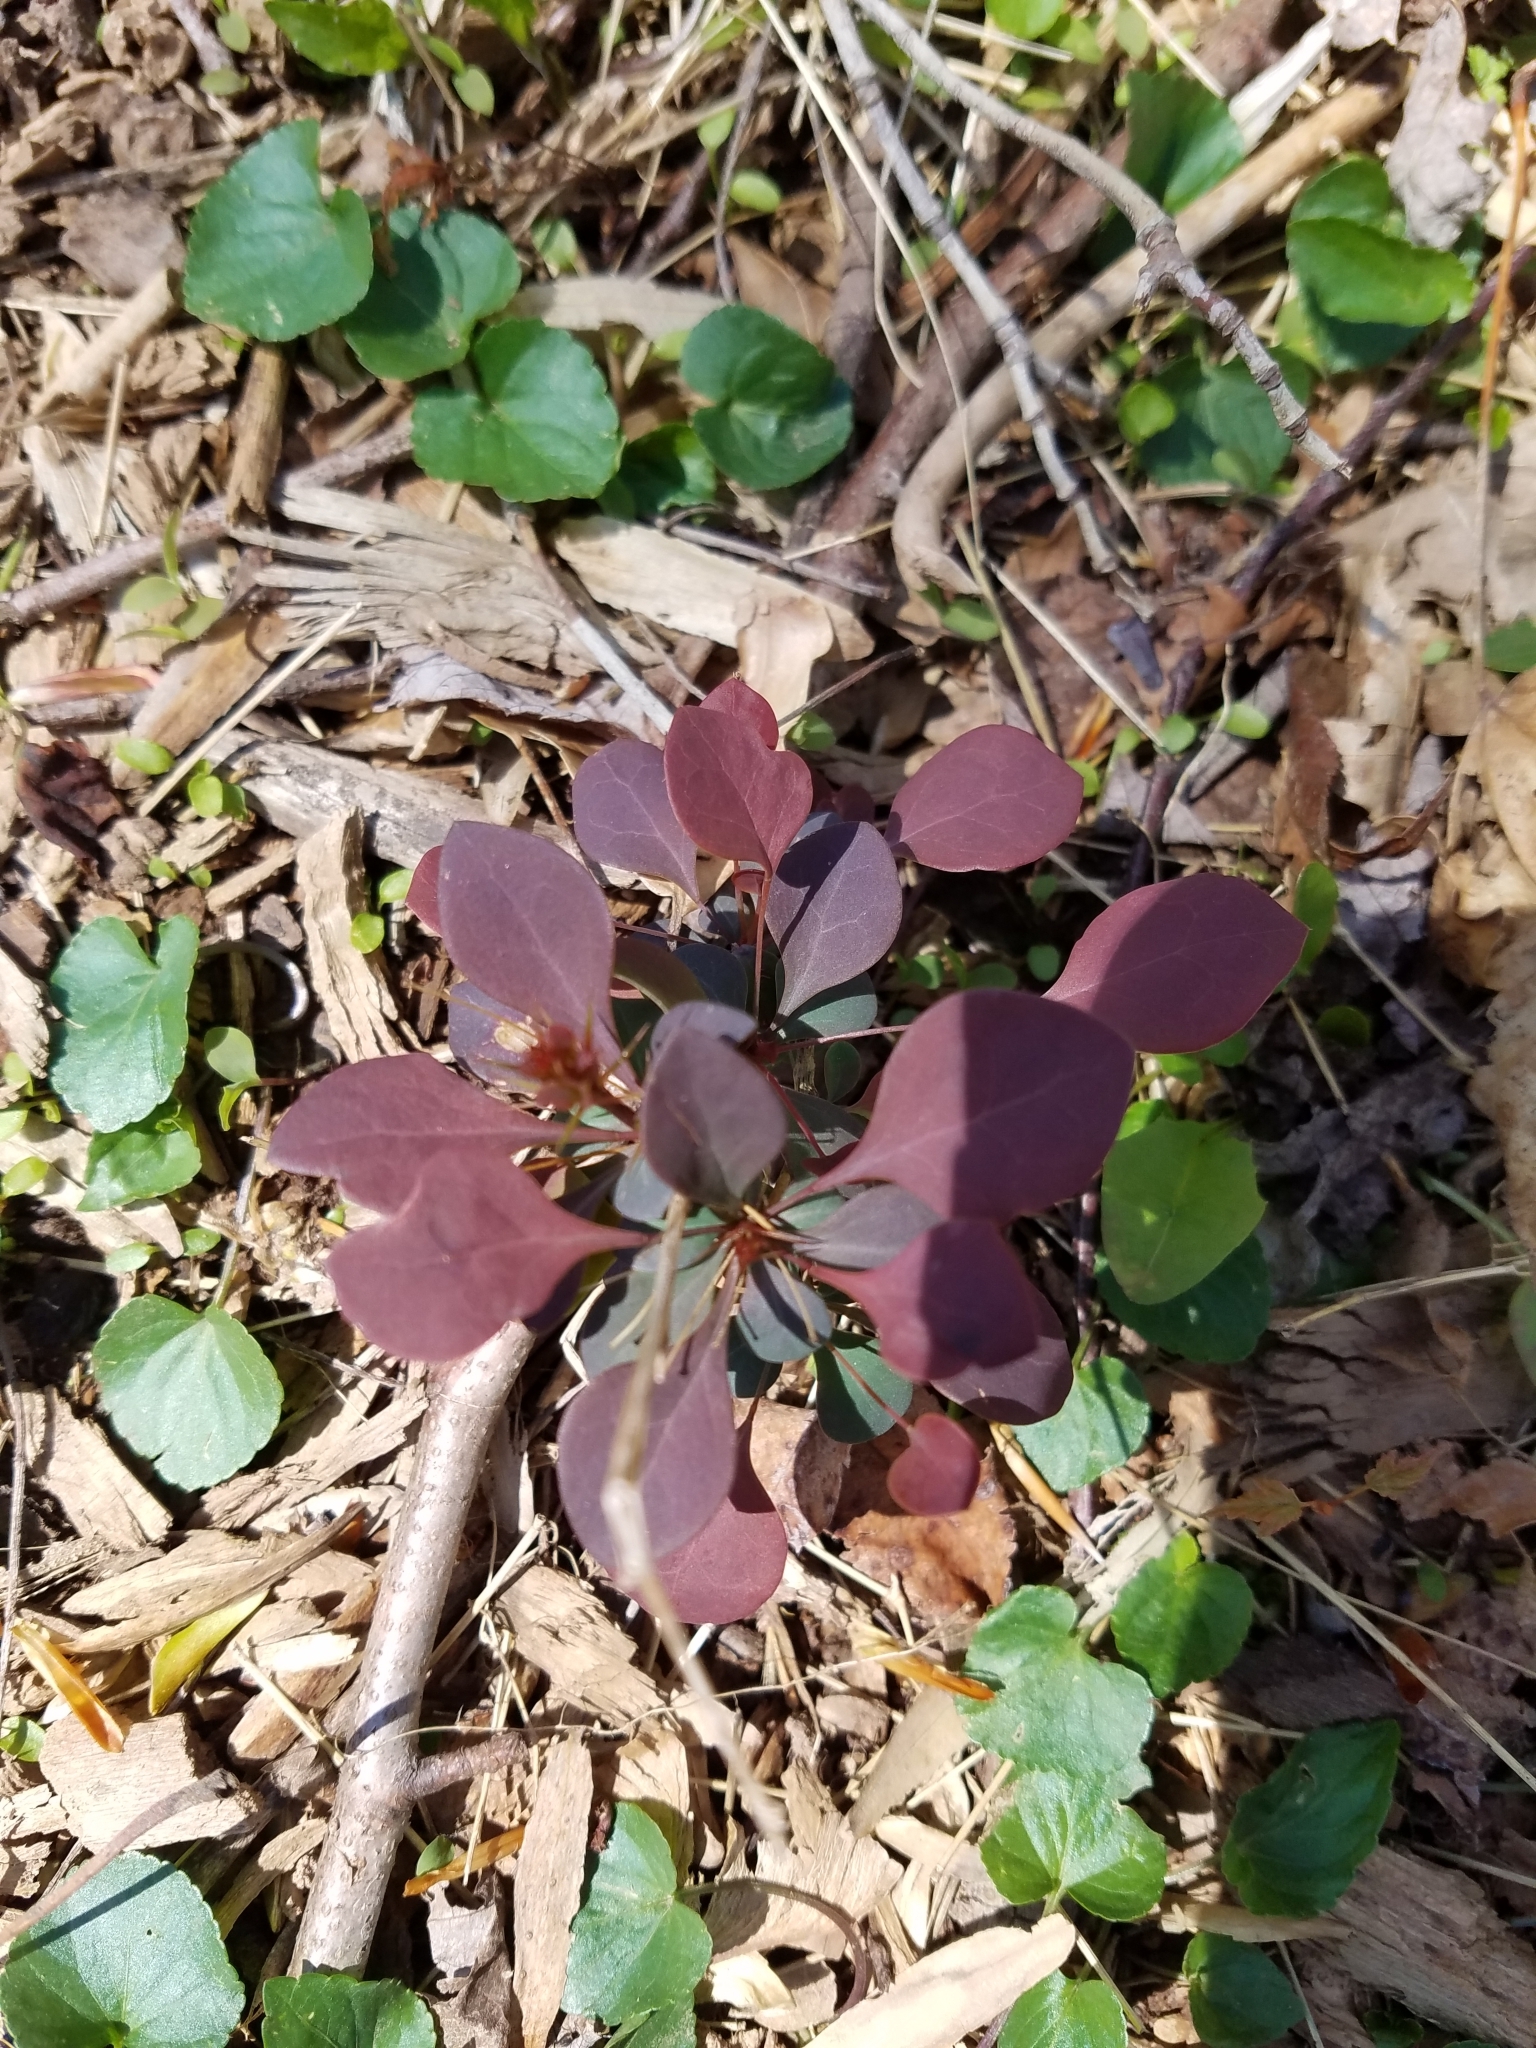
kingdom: Plantae
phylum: Tracheophyta
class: Magnoliopsida
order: Ranunculales
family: Berberidaceae
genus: Berberis
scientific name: Berberis thunbergii
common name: Japanese barberry
